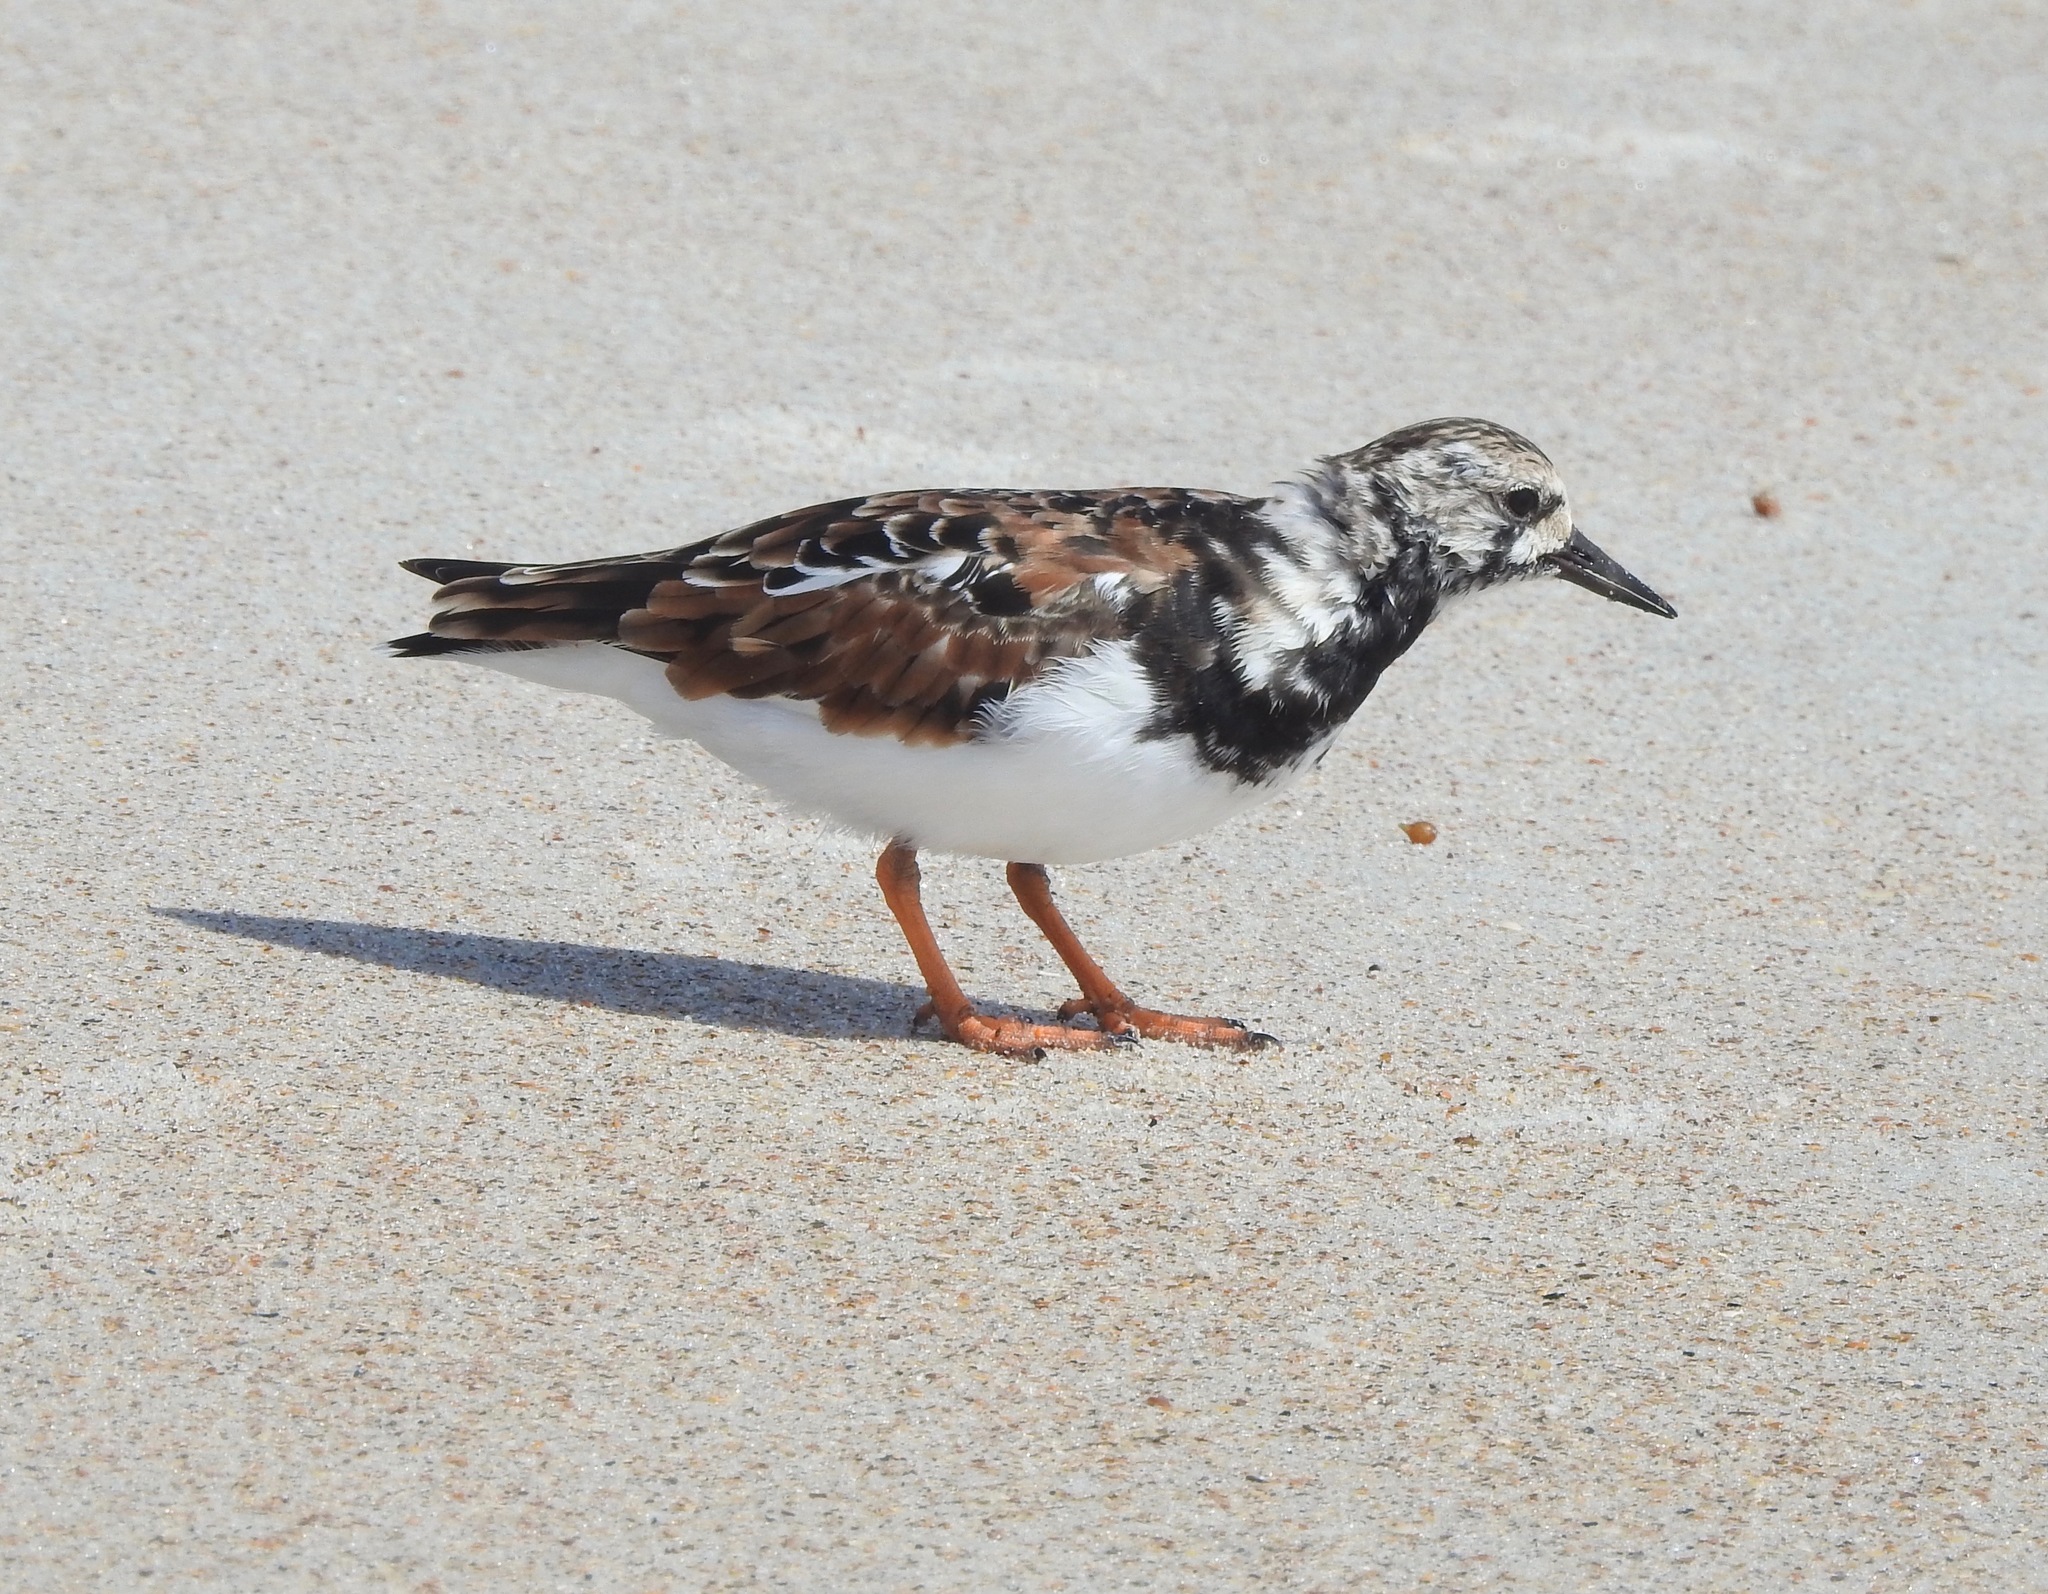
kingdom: Animalia
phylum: Chordata
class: Aves
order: Charadriiformes
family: Scolopacidae
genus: Arenaria
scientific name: Arenaria interpres
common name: Ruddy turnstone
